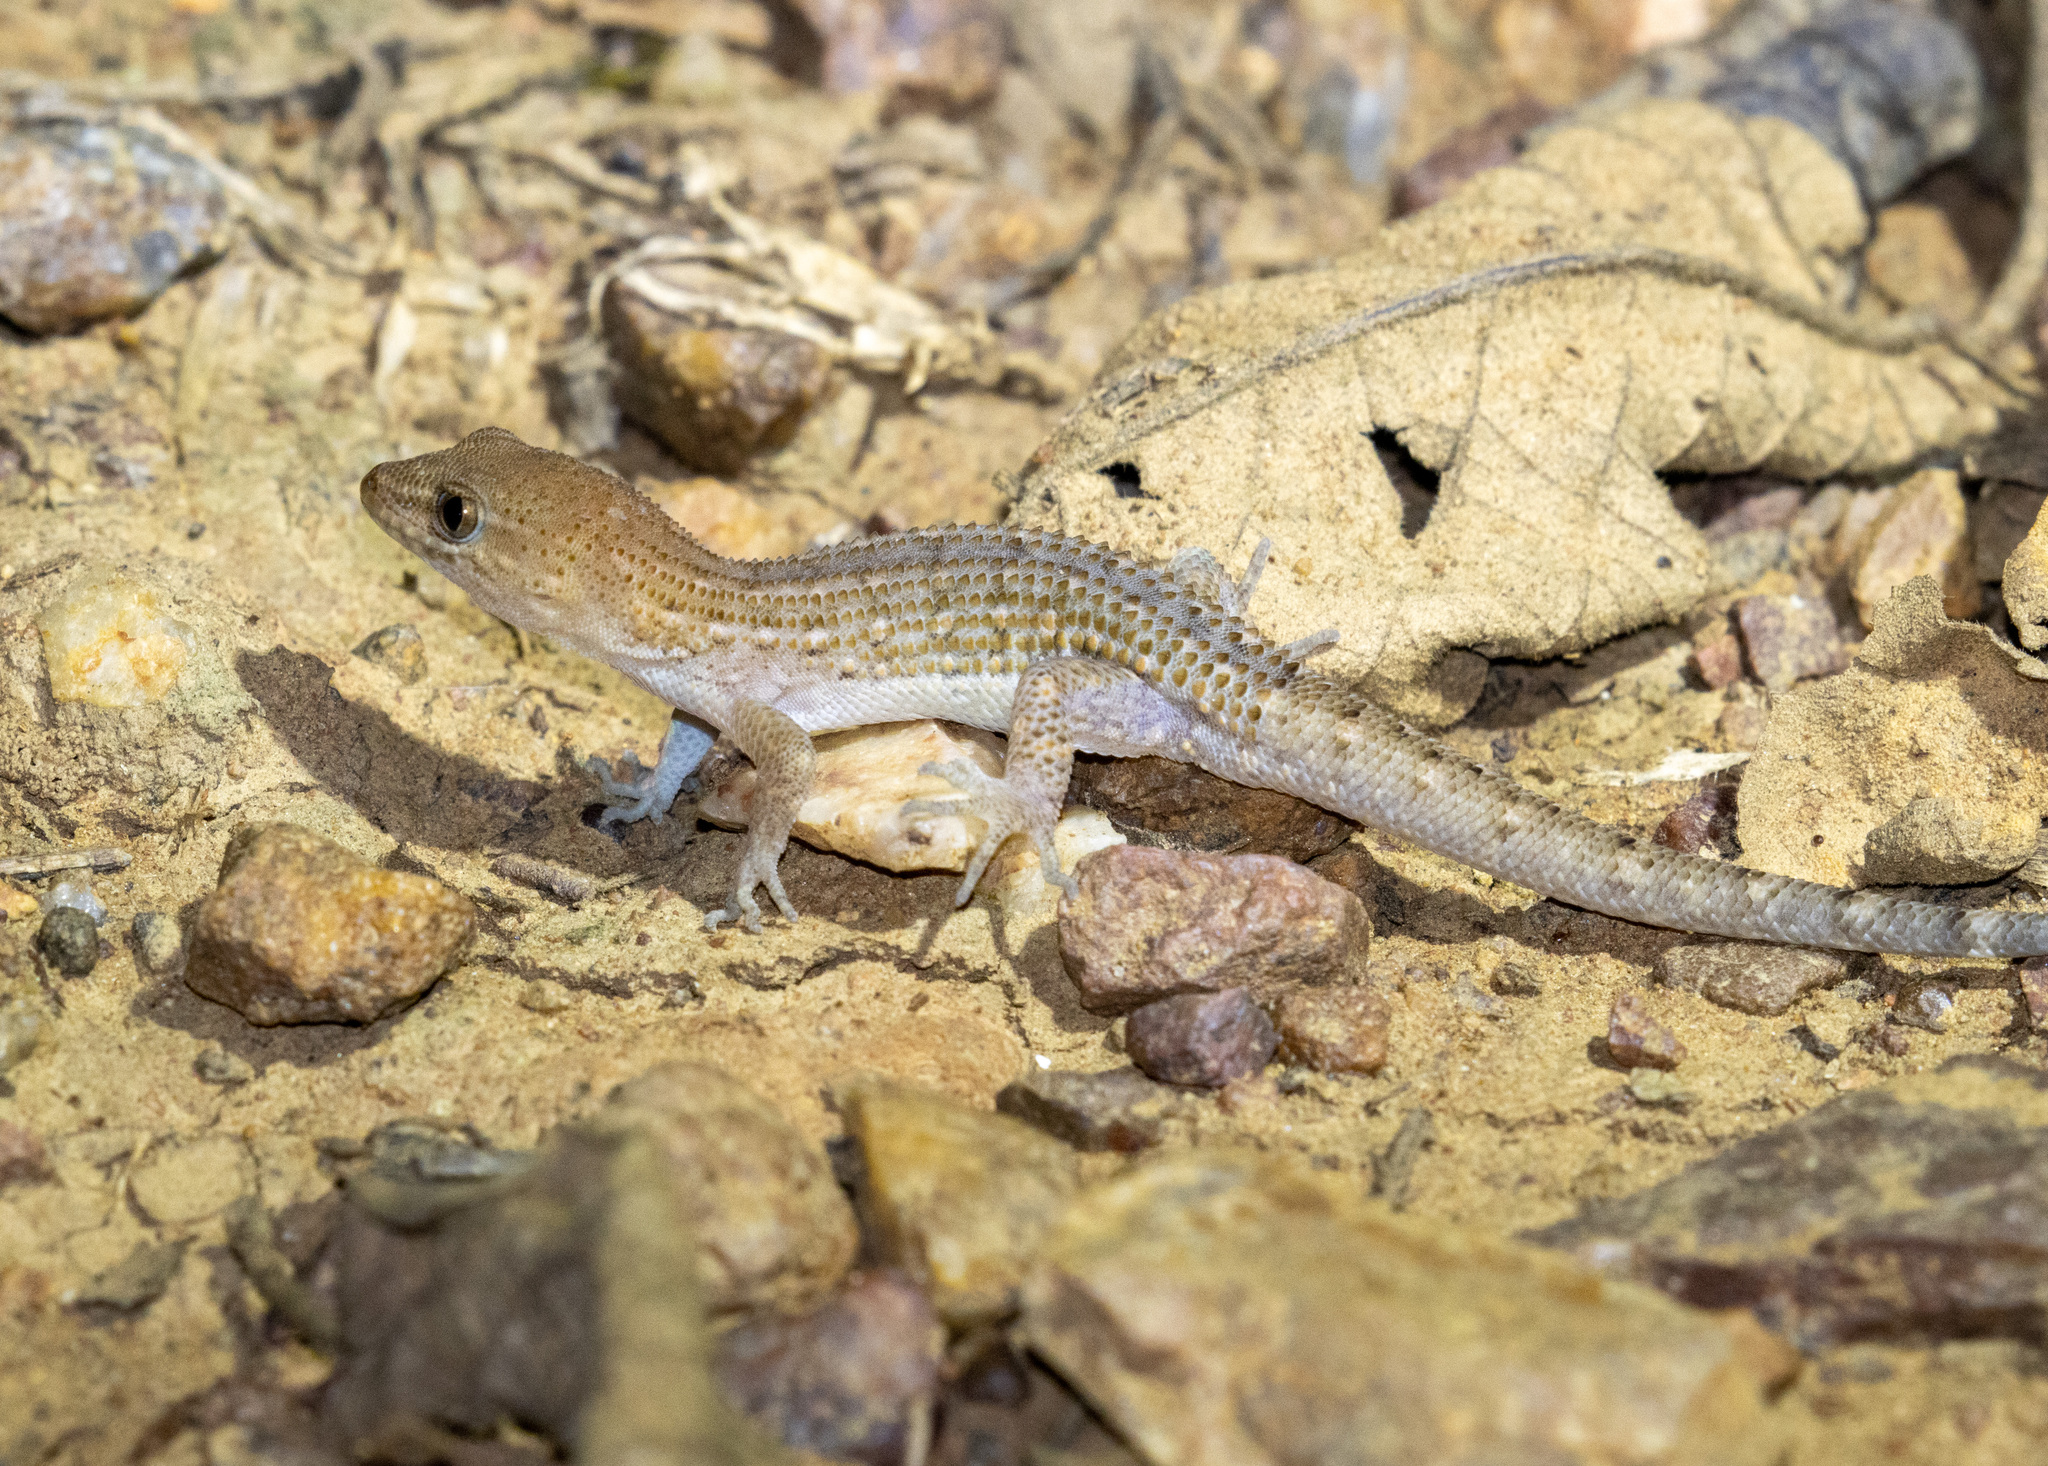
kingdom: Animalia
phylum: Chordata
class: Squamata
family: Phyllodactylidae
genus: Gymnodactylus
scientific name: Gymnodactylus geckoides
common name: Naked-toed gecko
